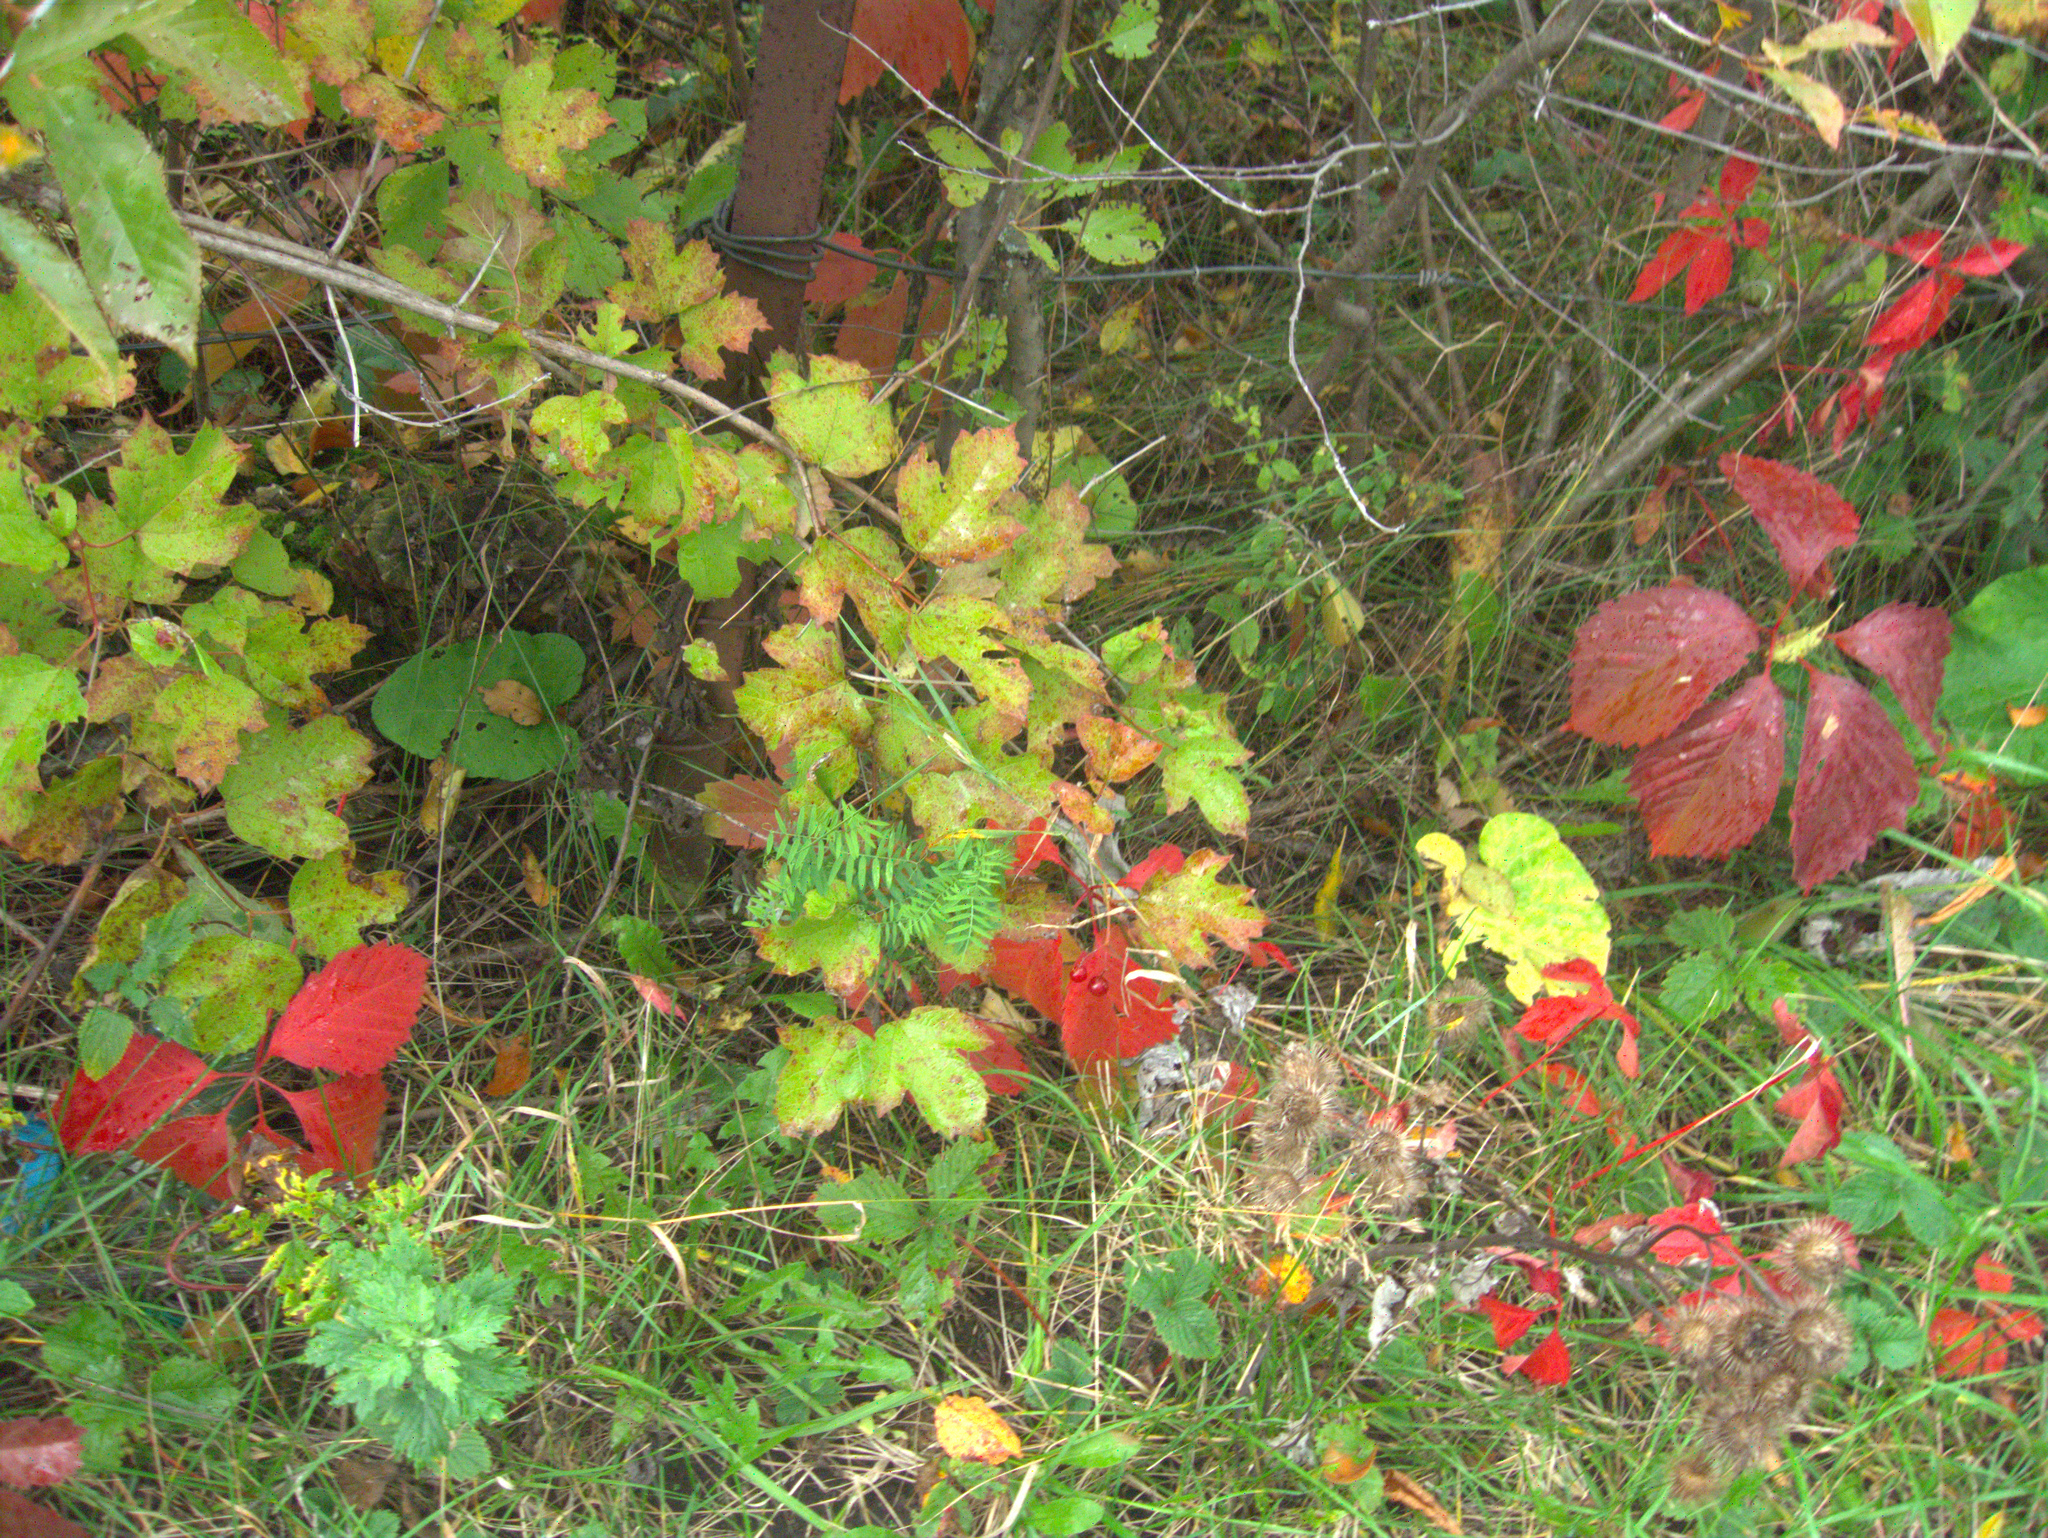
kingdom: Plantae
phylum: Tracheophyta
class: Magnoliopsida
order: Asterales
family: Asteraceae
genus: Artemisia
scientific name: Artemisia vulgaris
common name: Mugwort
